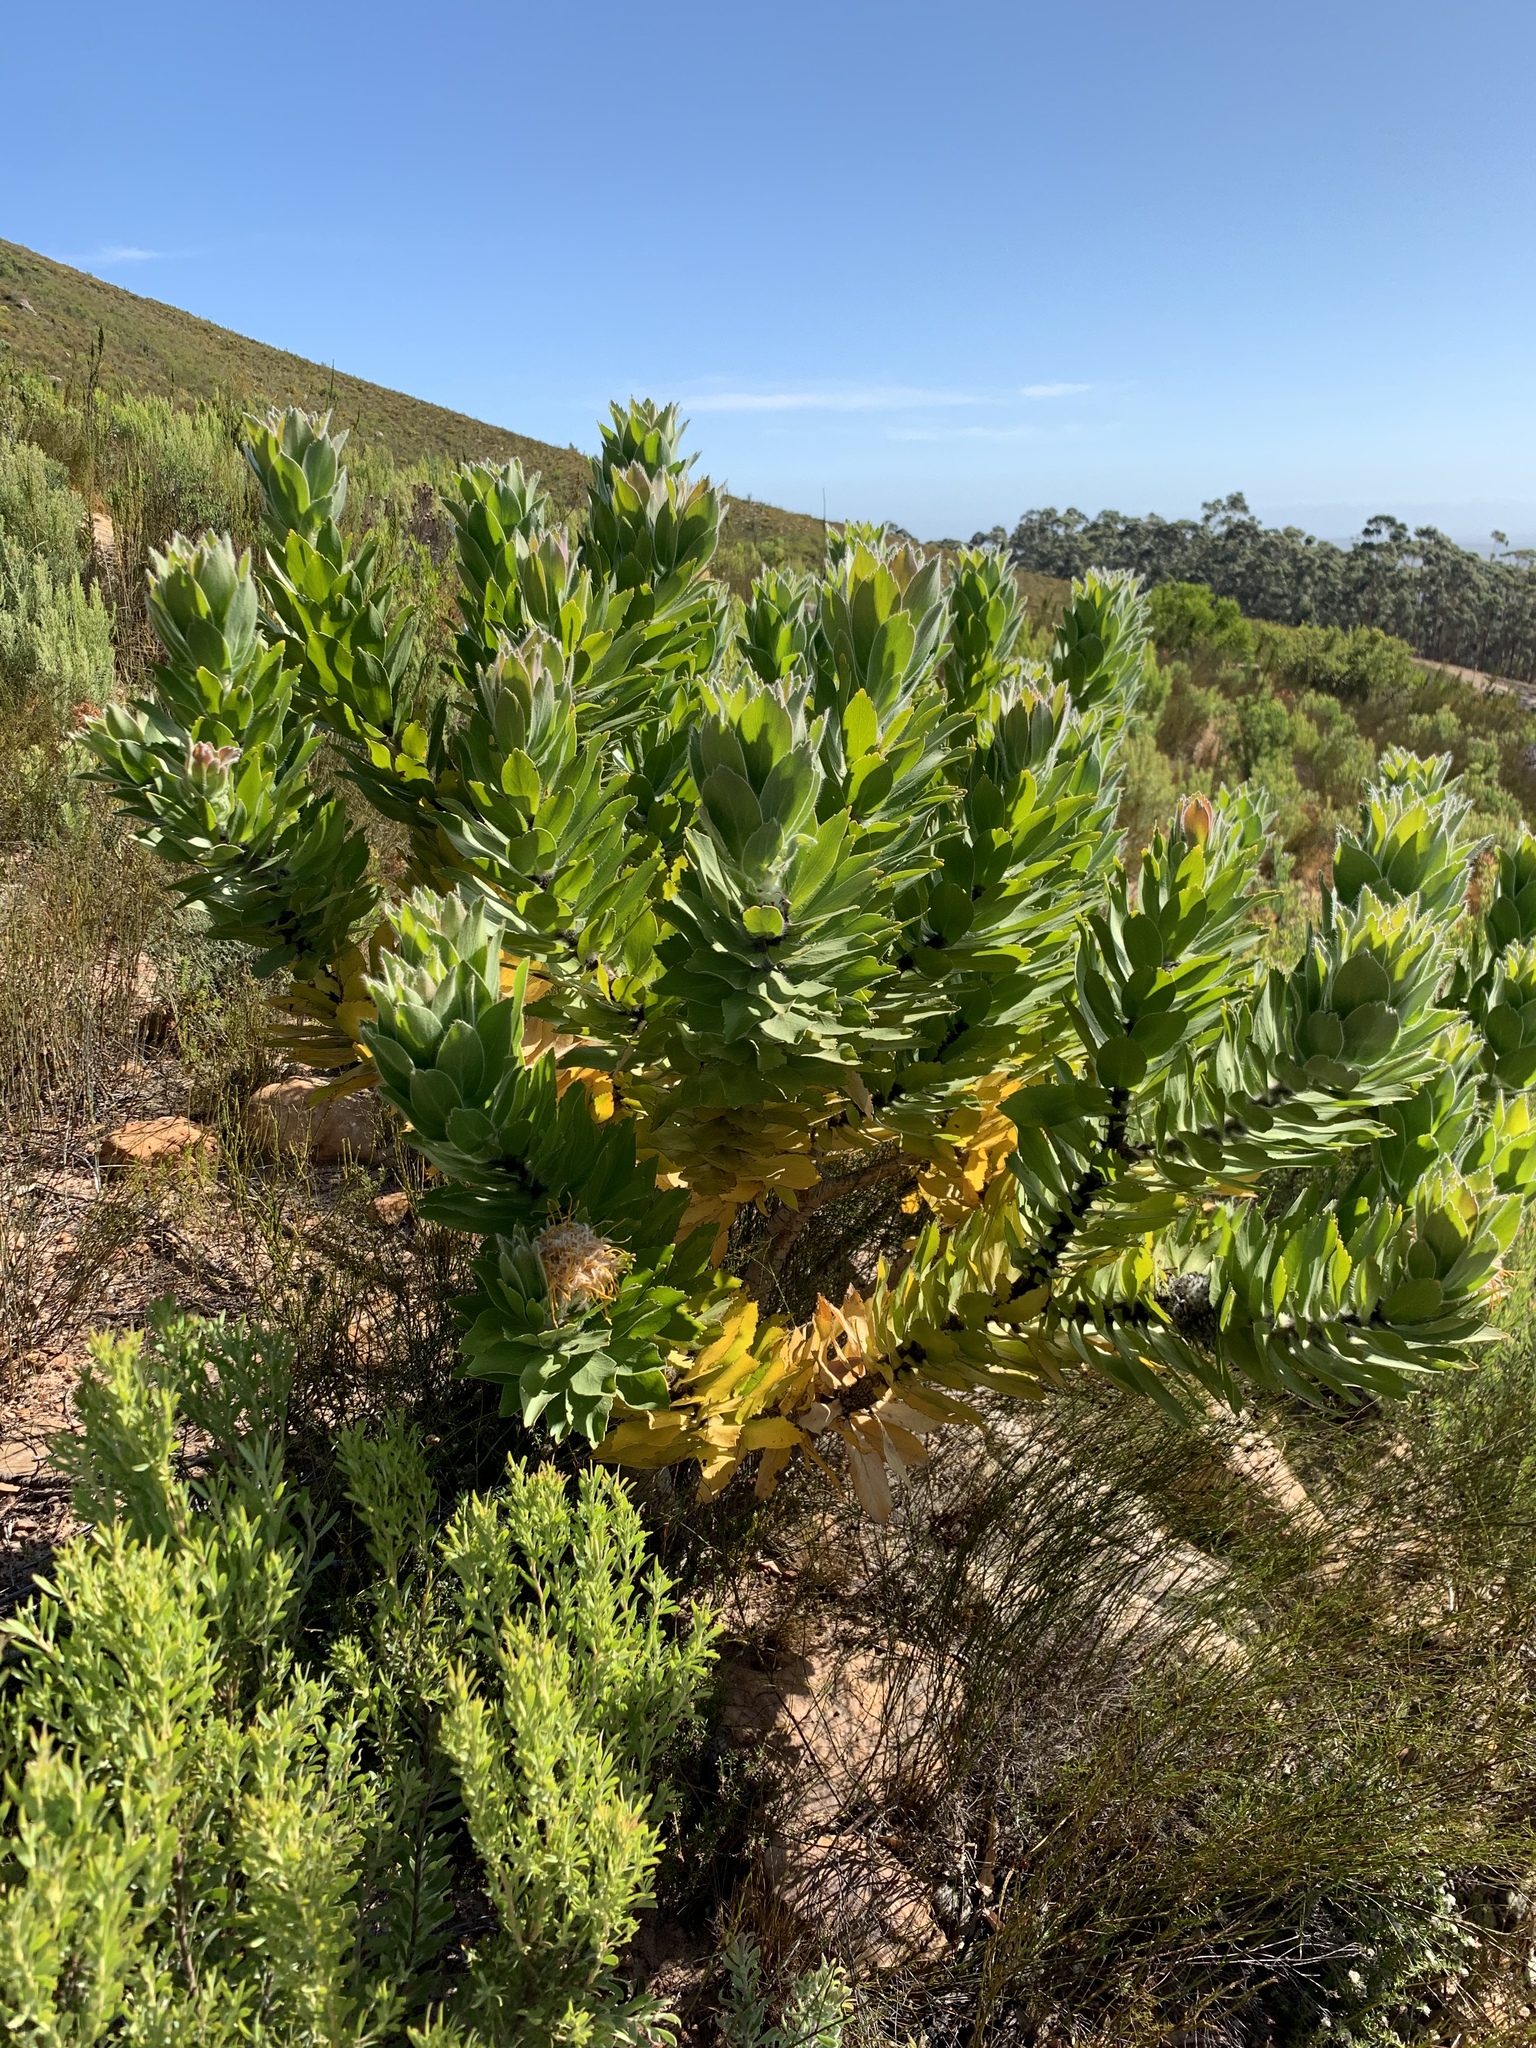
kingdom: Plantae
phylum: Tracheophyta
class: Magnoliopsida
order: Proteales
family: Proteaceae
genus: Leucospermum
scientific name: Leucospermum conocarpodendron
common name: Tree pincushion
